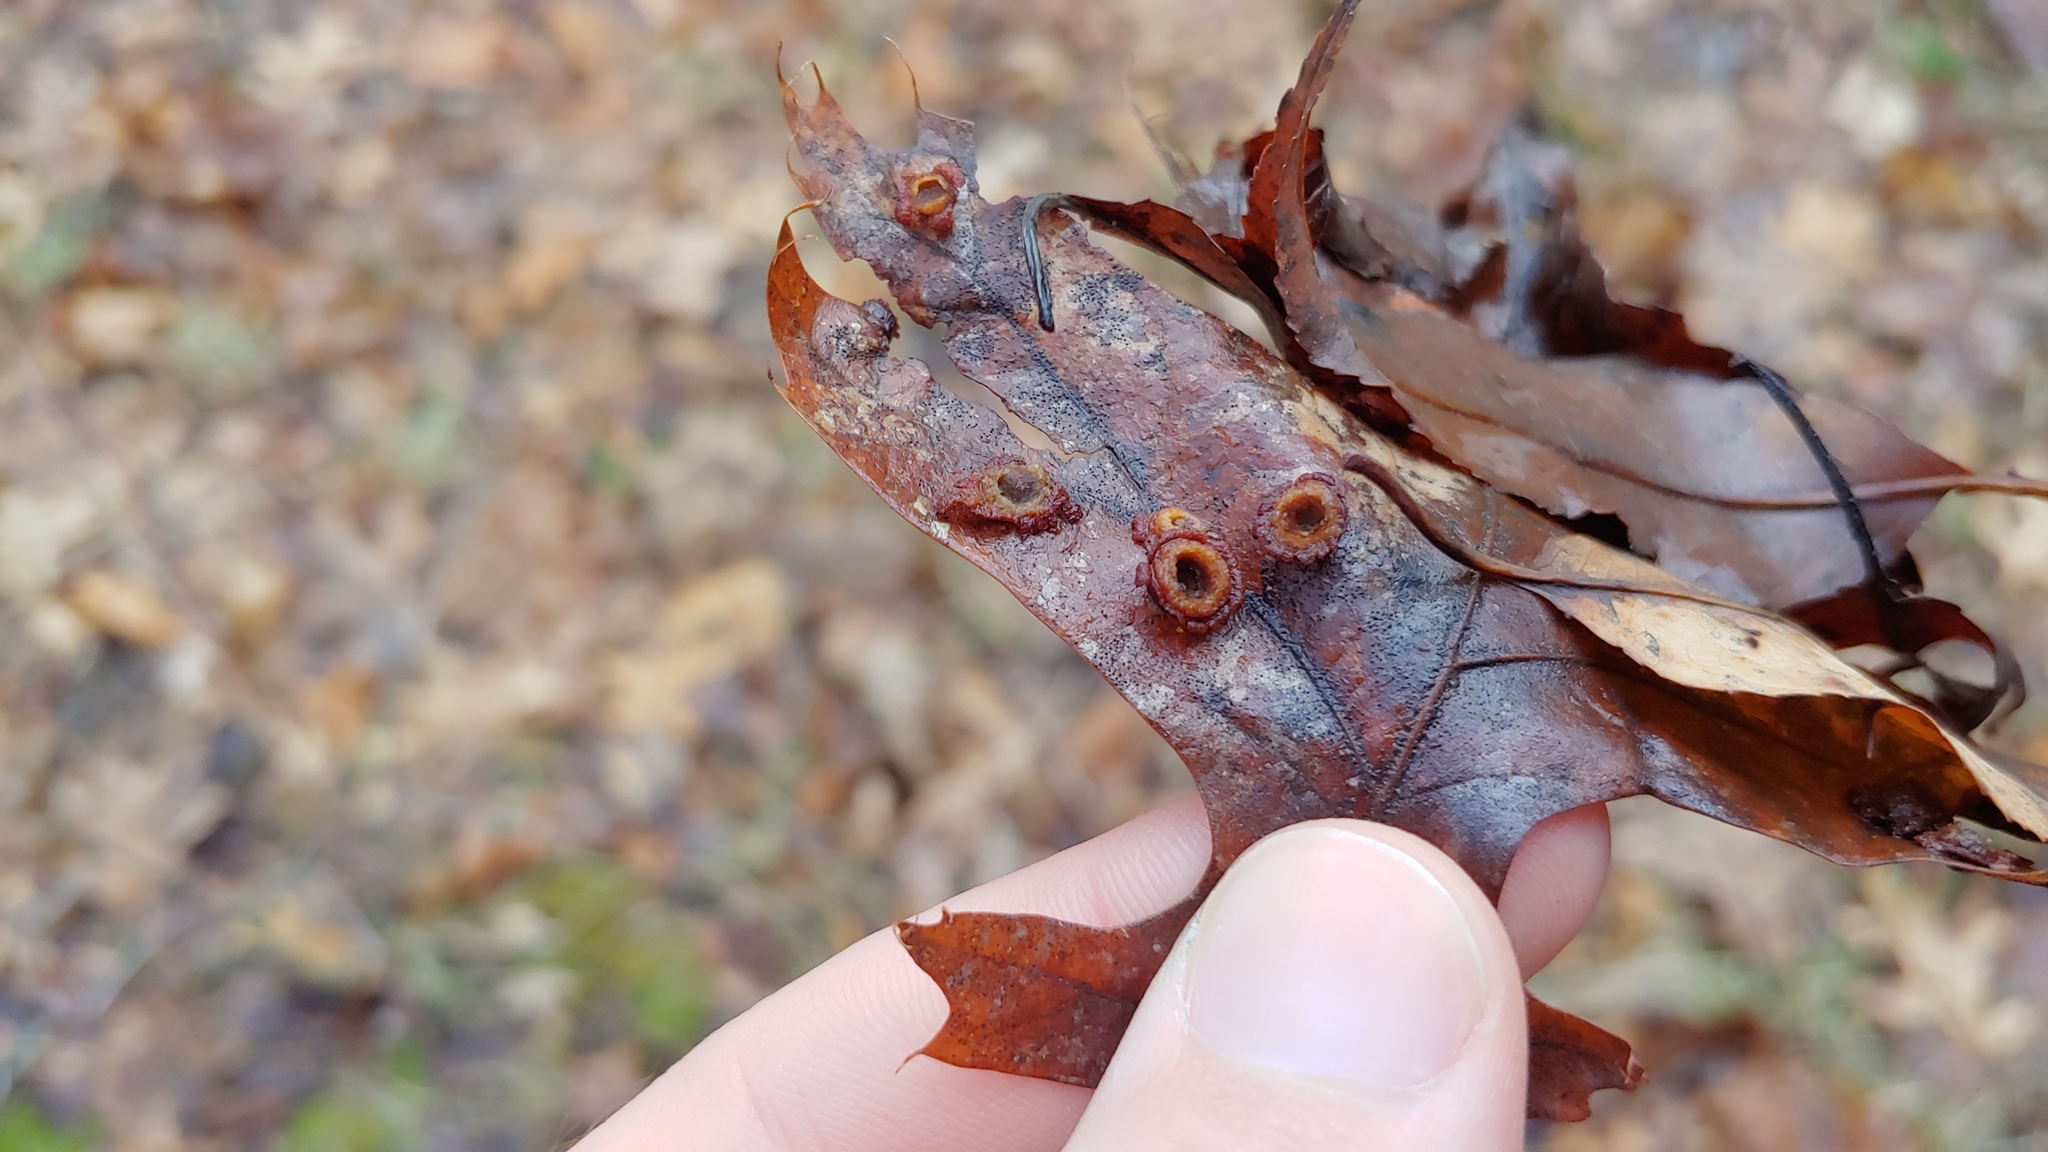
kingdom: Animalia
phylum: Arthropoda
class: Insecta
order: Diptera
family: Cecidomyiidae
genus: Polystepha
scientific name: Polystepha pilulae
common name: Oak leaf gall midge
